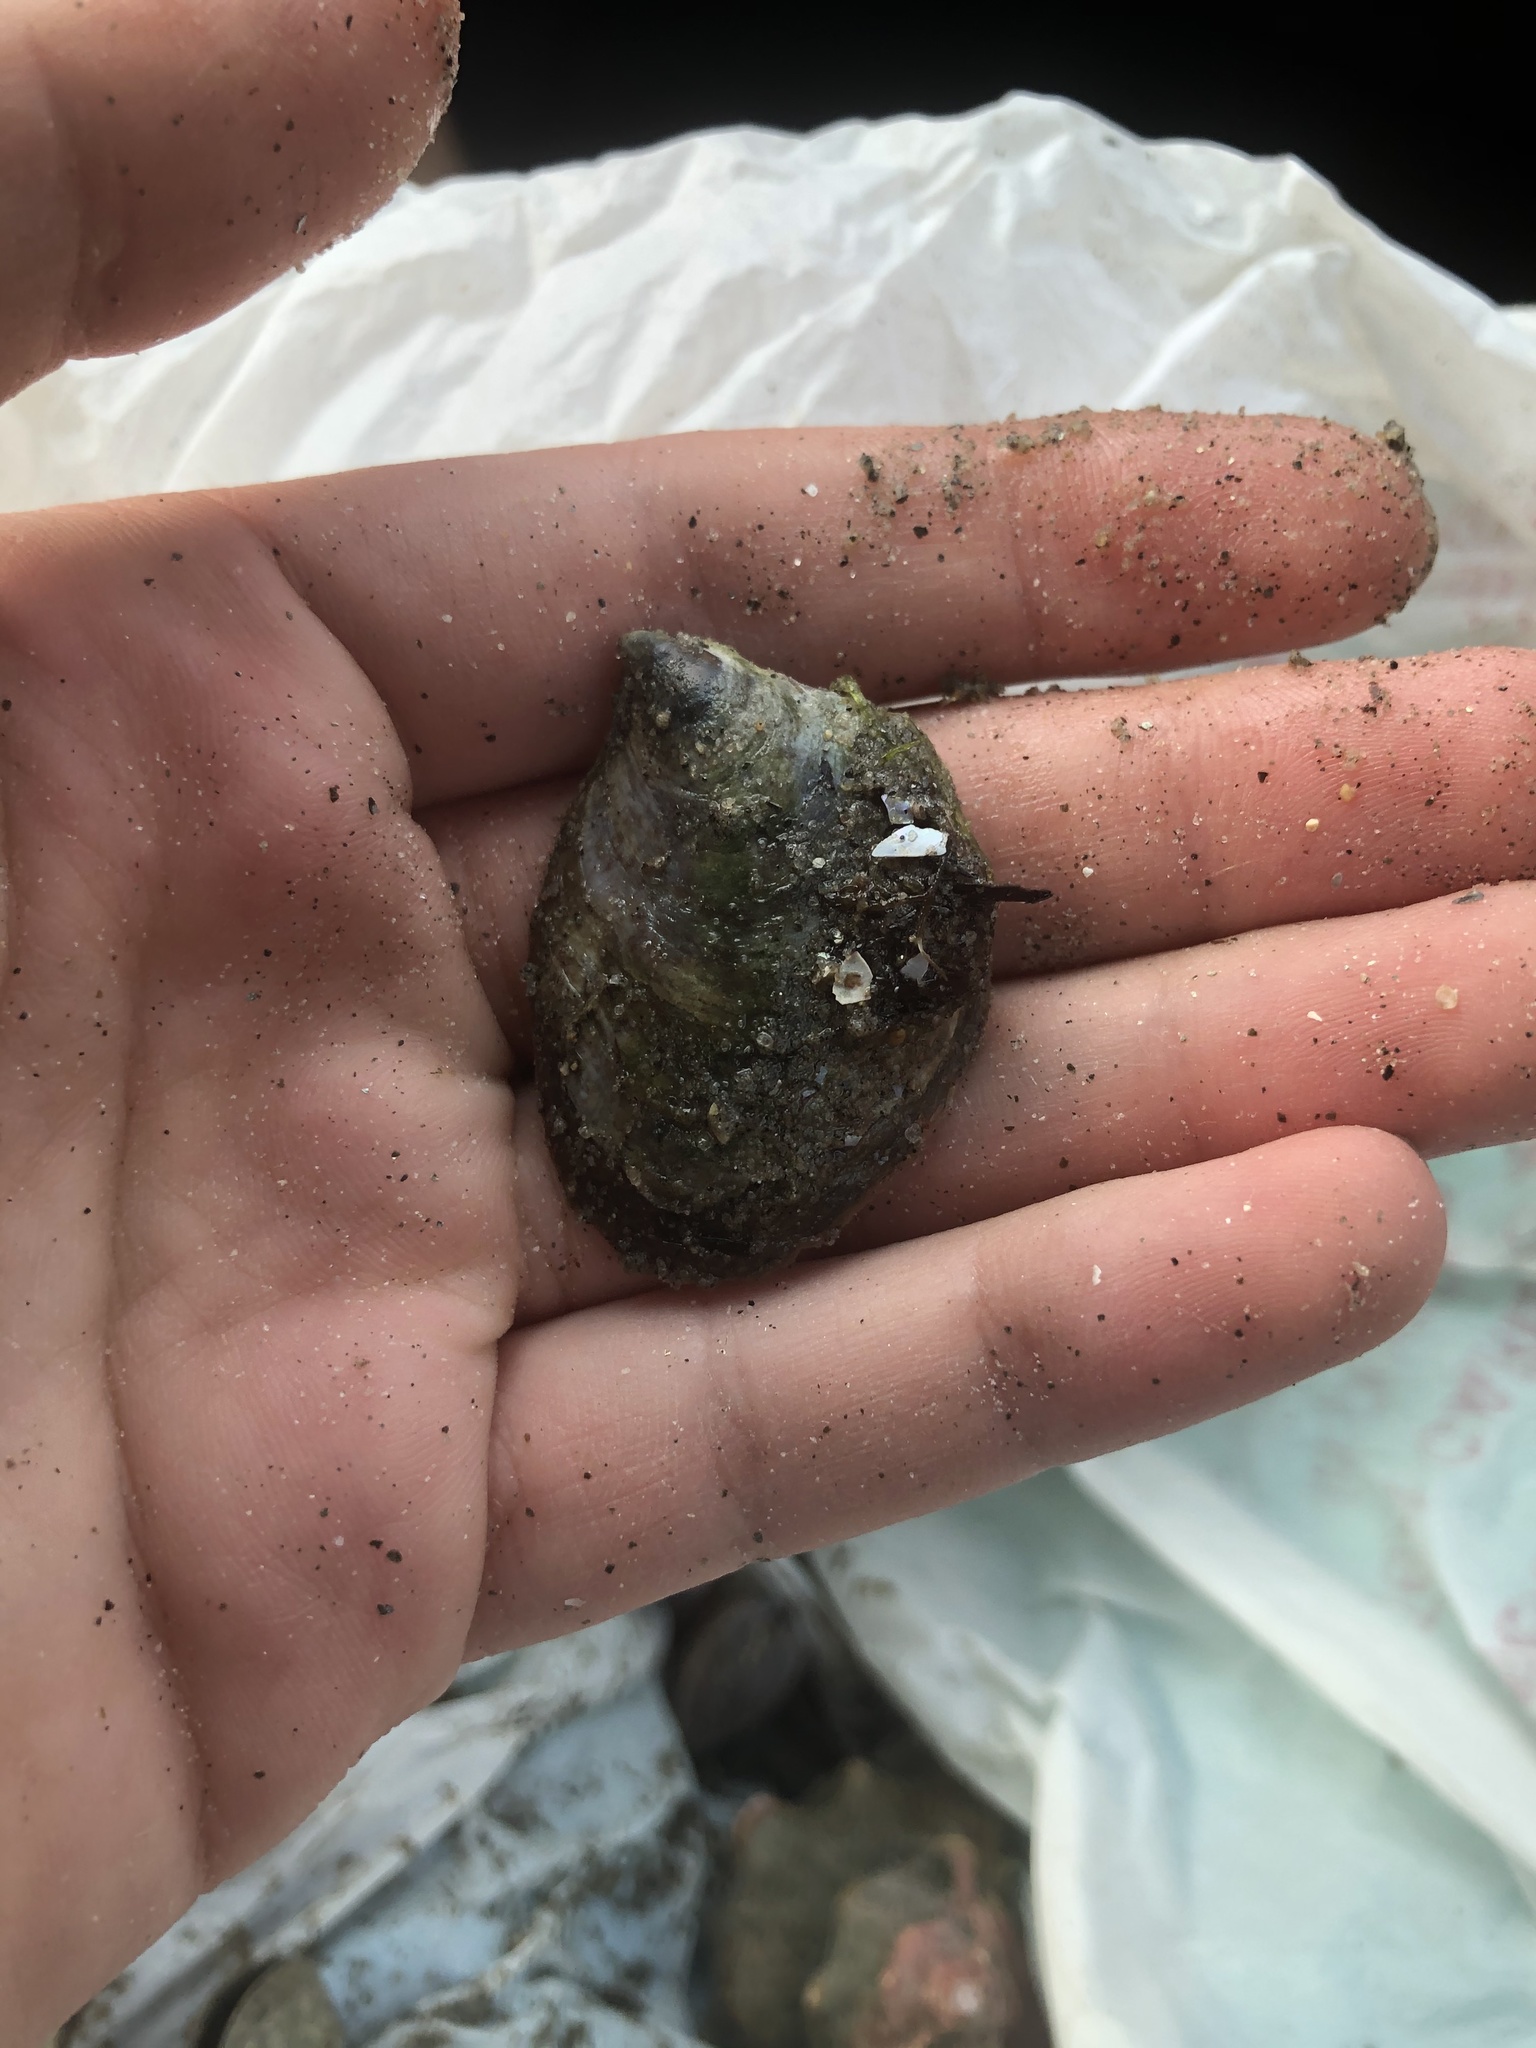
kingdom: Animalia
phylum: Mollusca
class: Gastropoda
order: Littorinimorpha
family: Calyptraeidae
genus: Crepidula
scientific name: Crepidula onyx
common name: Onyx slippersnail
